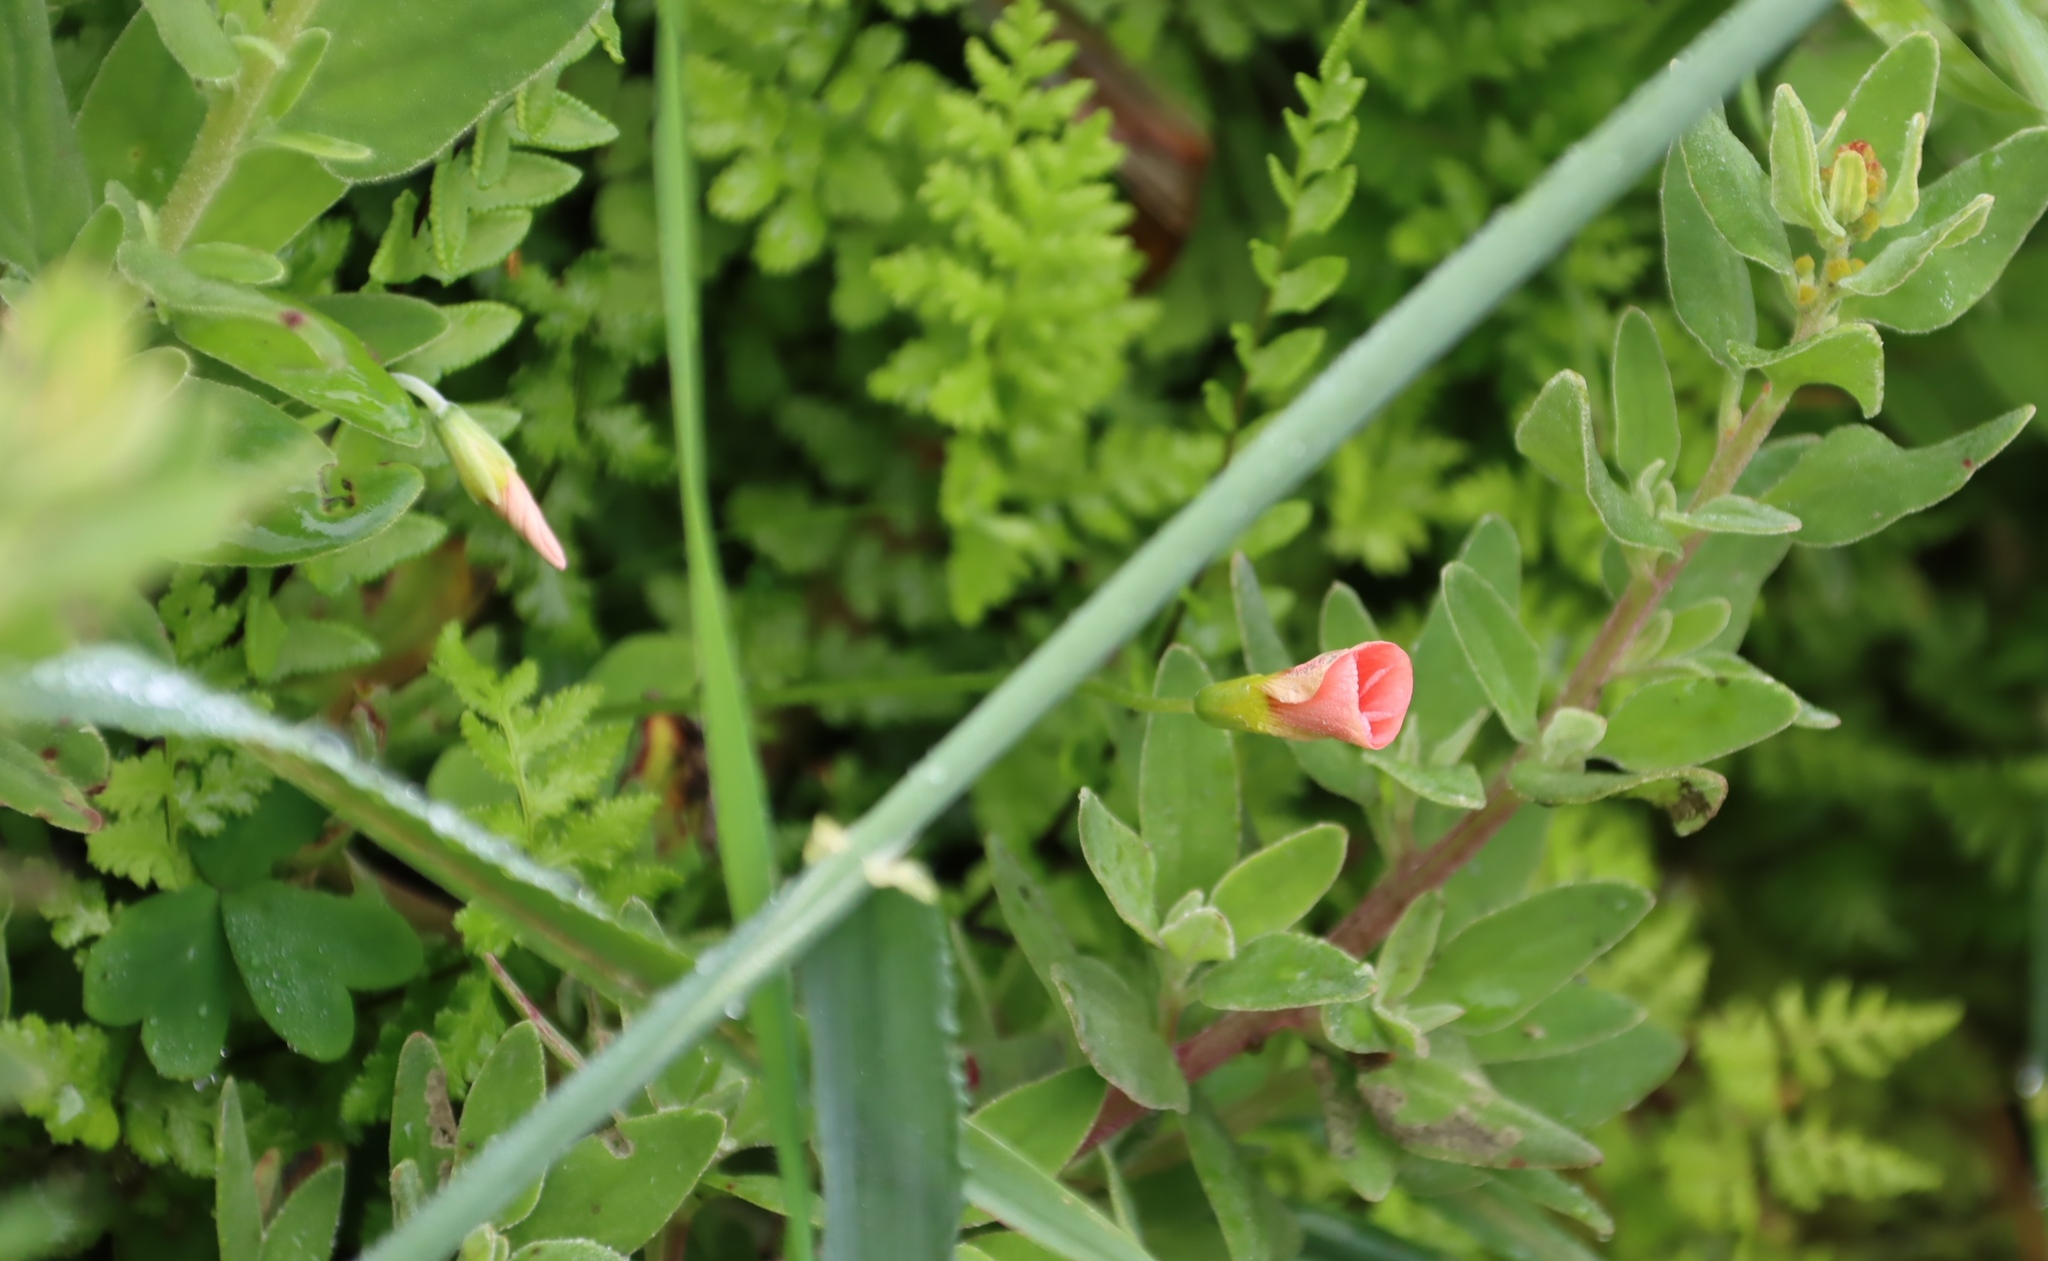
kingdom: Plantae
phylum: Tracheophyta
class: Magnoliopsida
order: Oxalidales
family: Oxalidaceae
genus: Oxalis
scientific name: Oxalis obtusa
